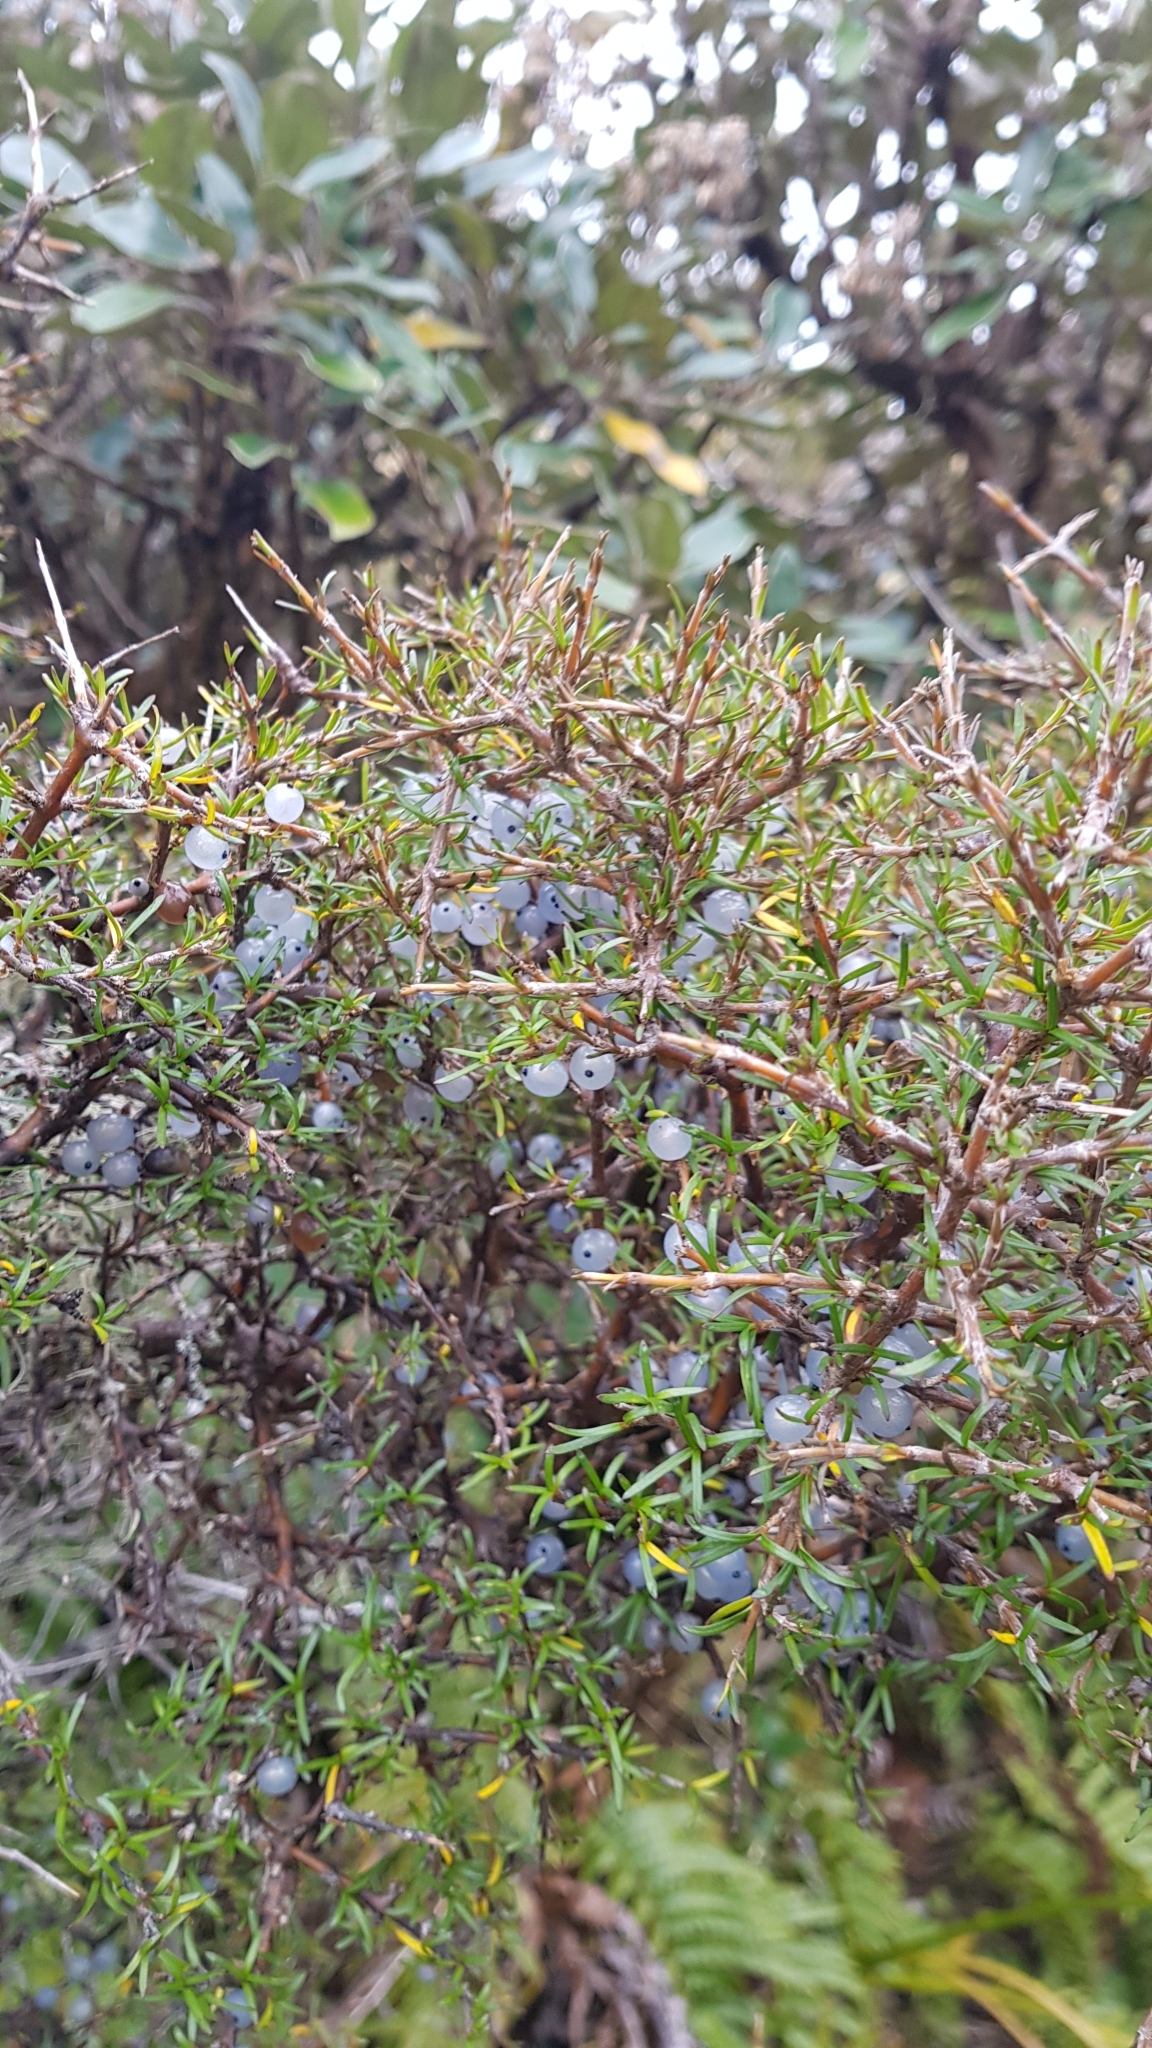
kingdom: Plantae
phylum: Tracheophyta
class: Magnoliopsida
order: Gentianales
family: Rubiaceae
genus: Coprosma
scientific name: Coprosma rugosa
